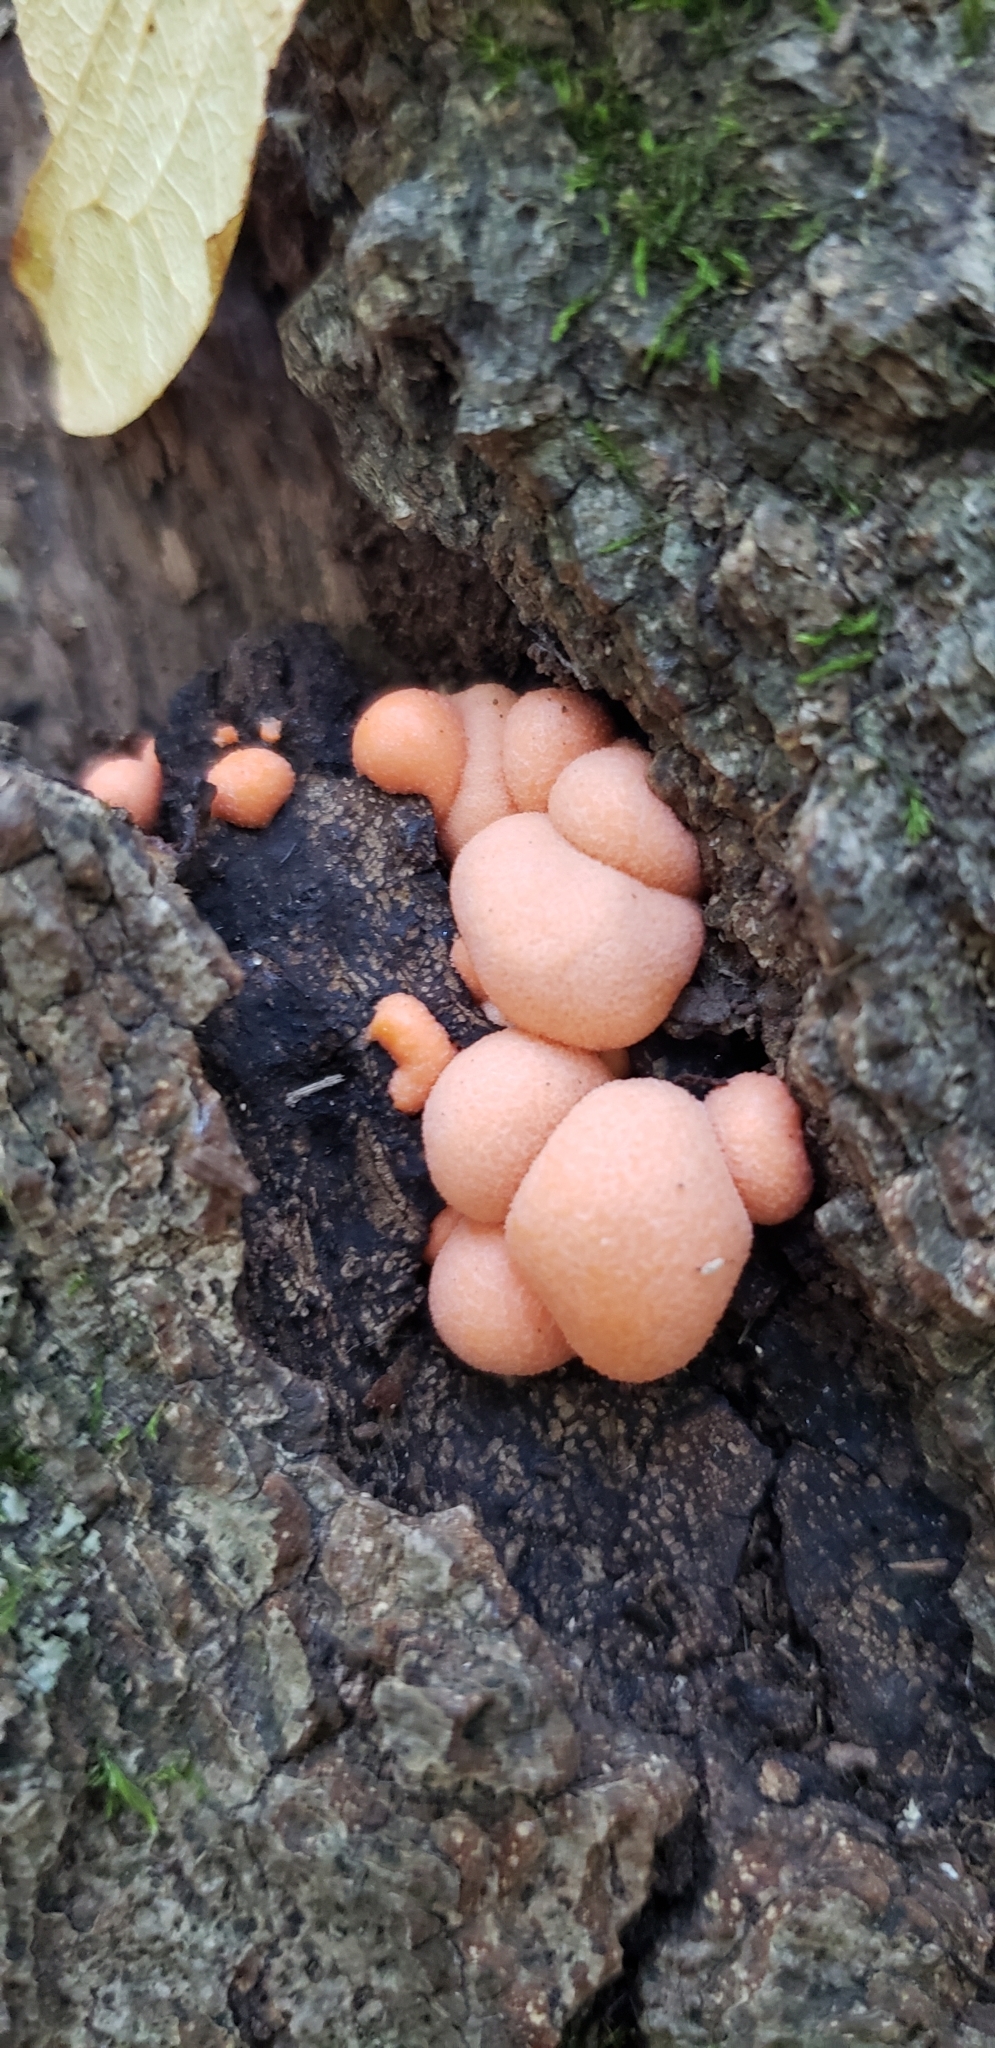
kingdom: Protozoa
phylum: Mycetozoa
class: Myxomycetes
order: Cribrariales
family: Tubiferaceae
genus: Lycogala
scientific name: Lycogala epidendrum
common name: Wolf's milk
